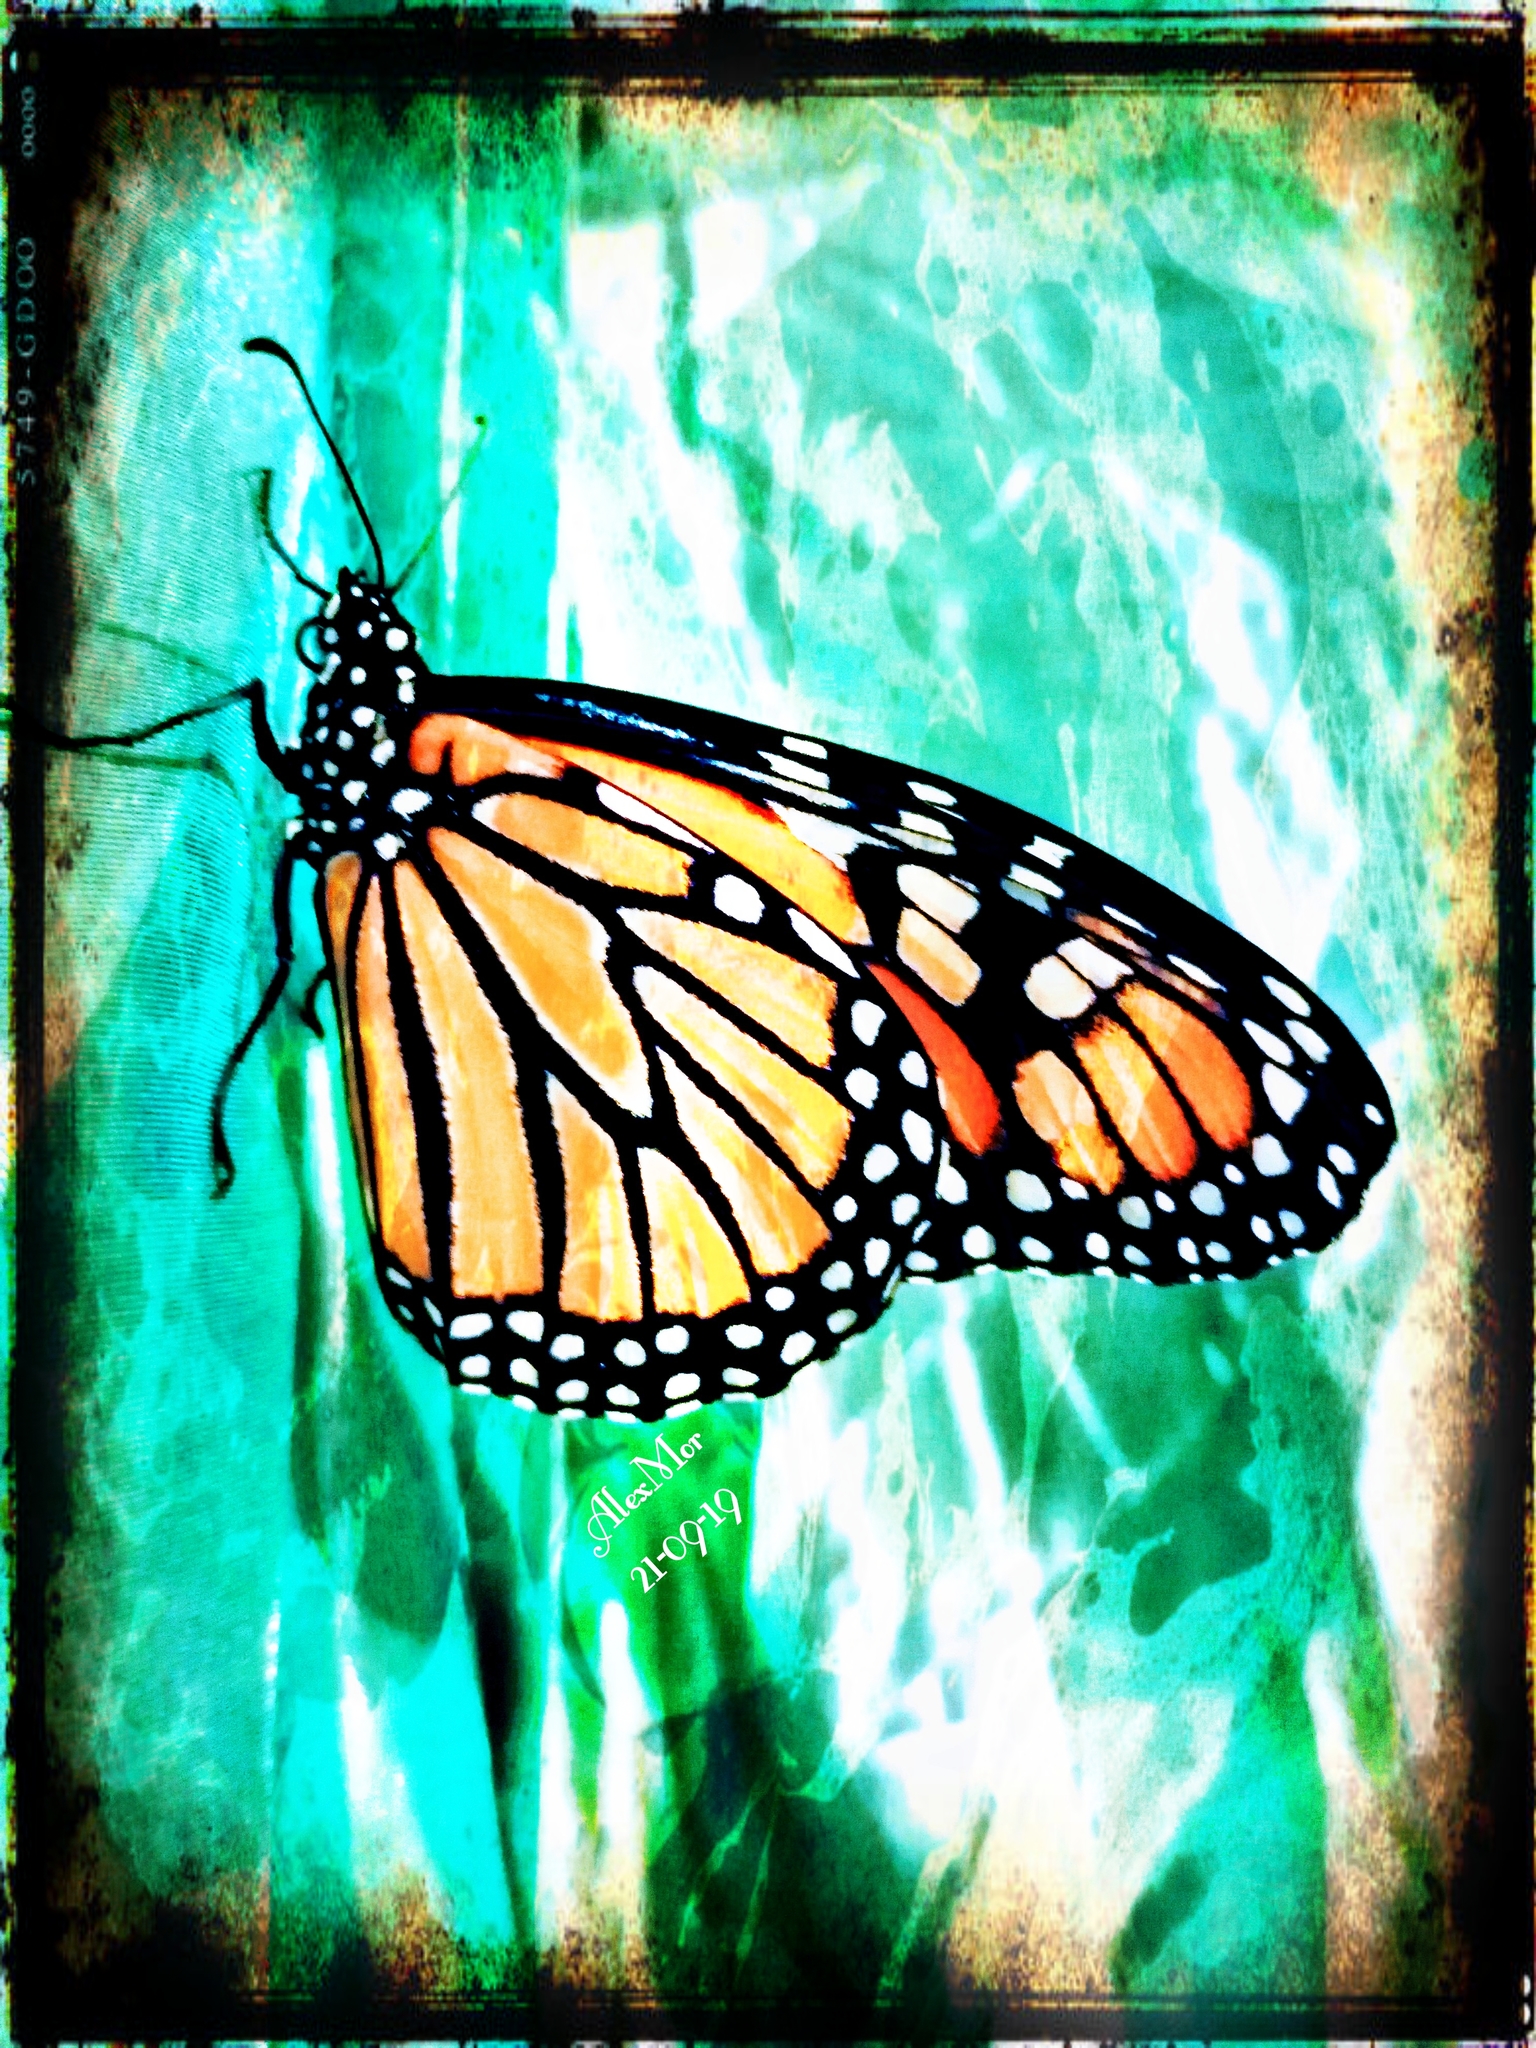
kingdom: Animalia
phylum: Arthropoda
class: Insecta
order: Lepidoptera
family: Nymphalidae
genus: Danaus
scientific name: Danaus plexippus
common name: Monarch
